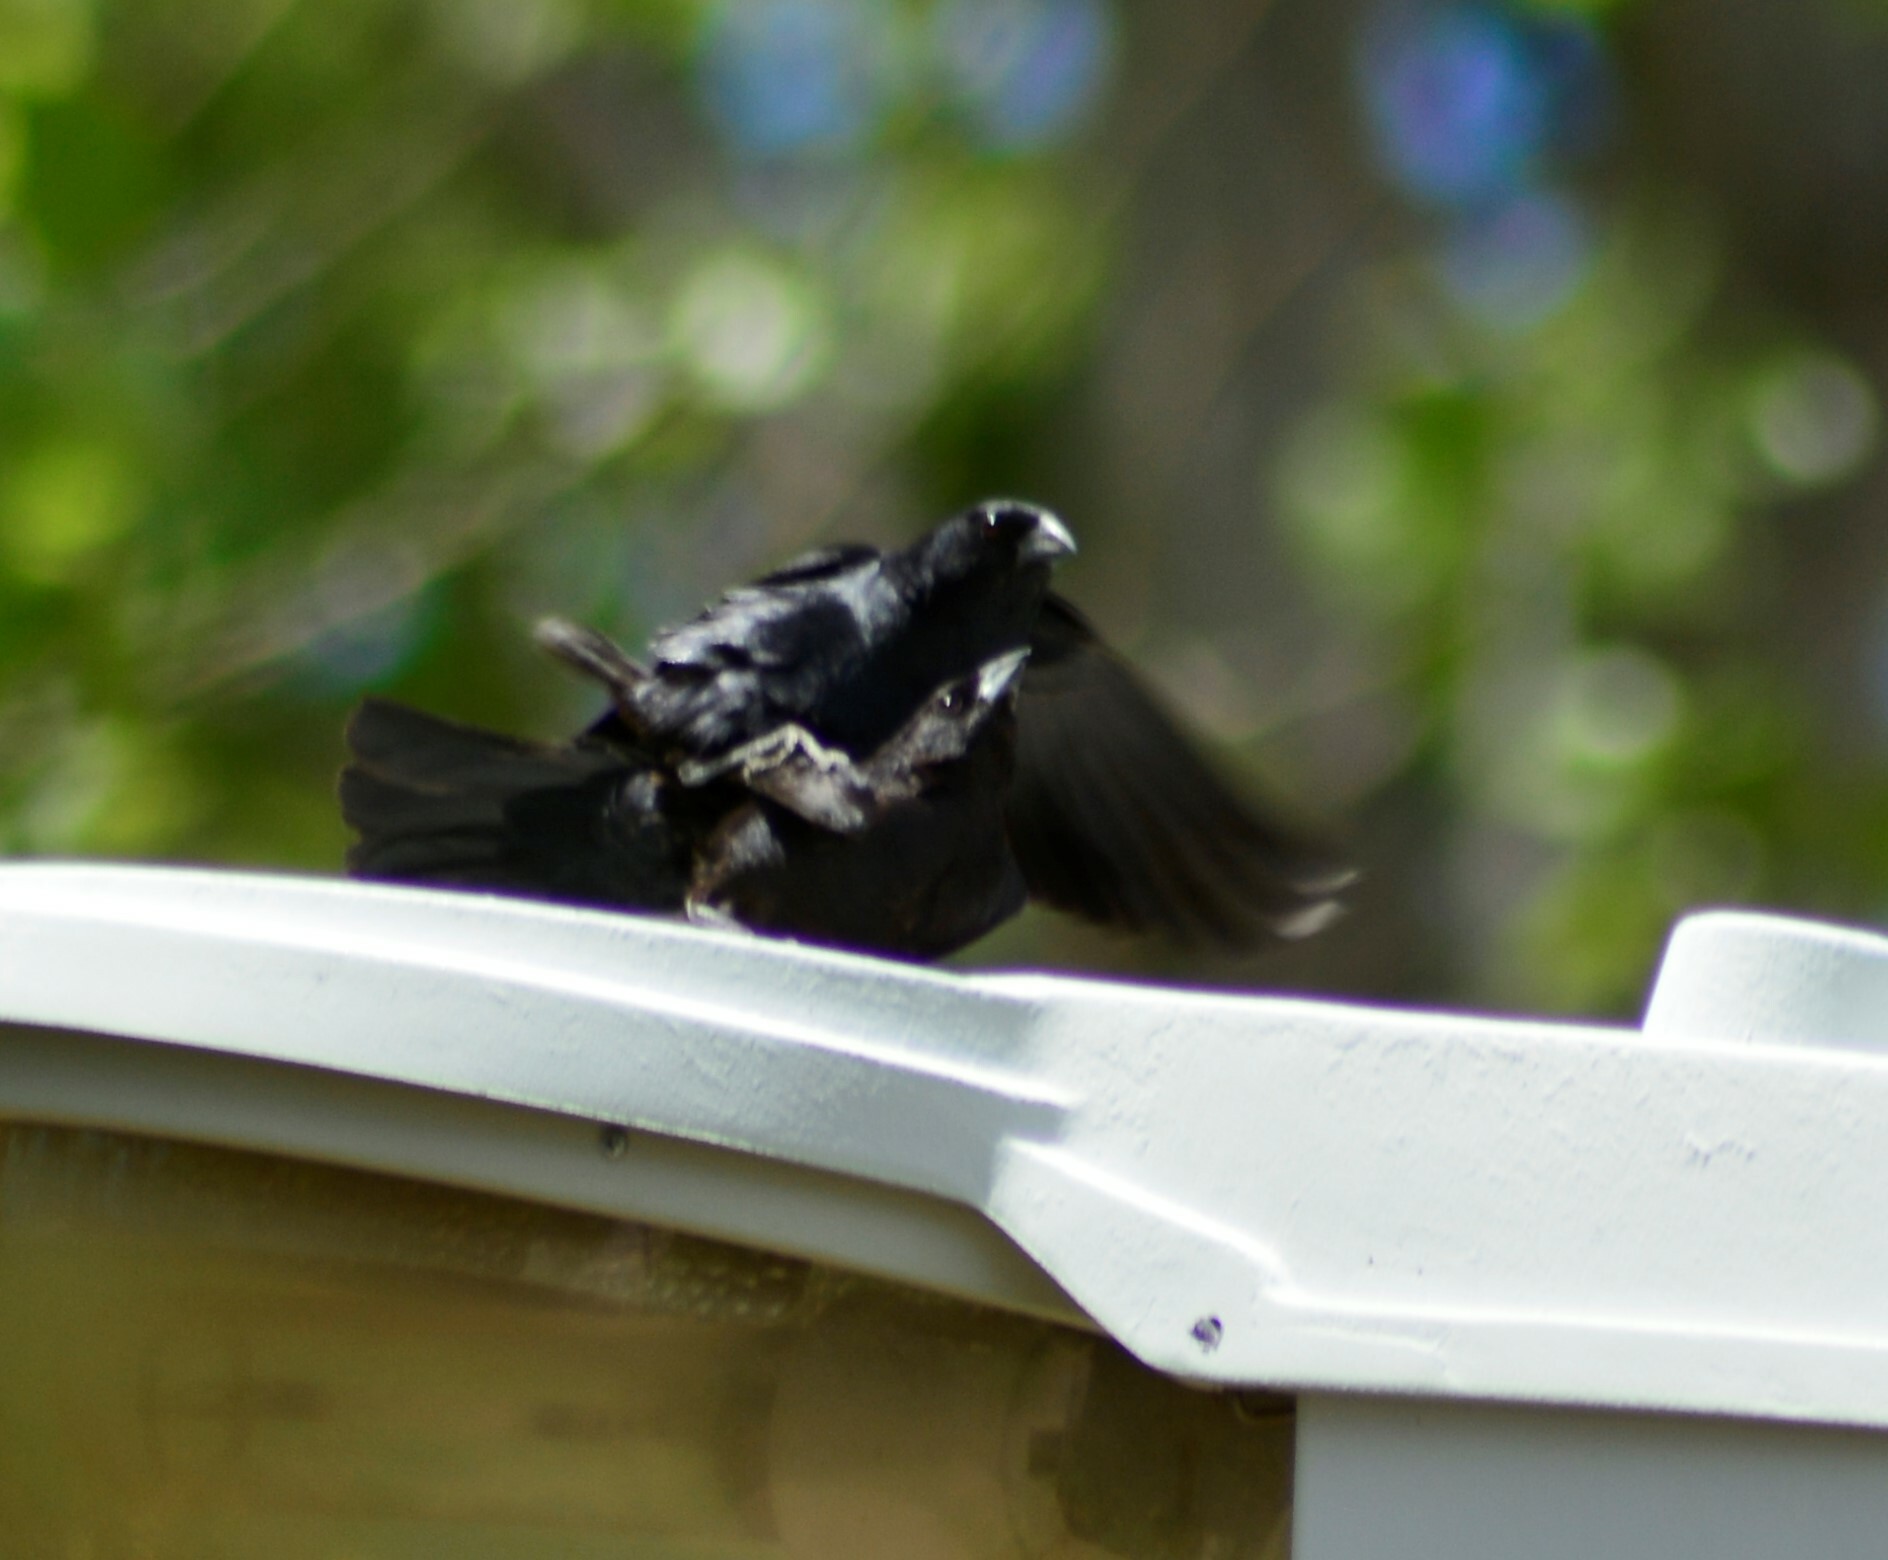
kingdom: Animalia
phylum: Chordata
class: Aves
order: Passeriformes
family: Icteridae
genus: Molothrus
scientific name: Molothrus rufoaxillaris
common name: Screaming cowbird
